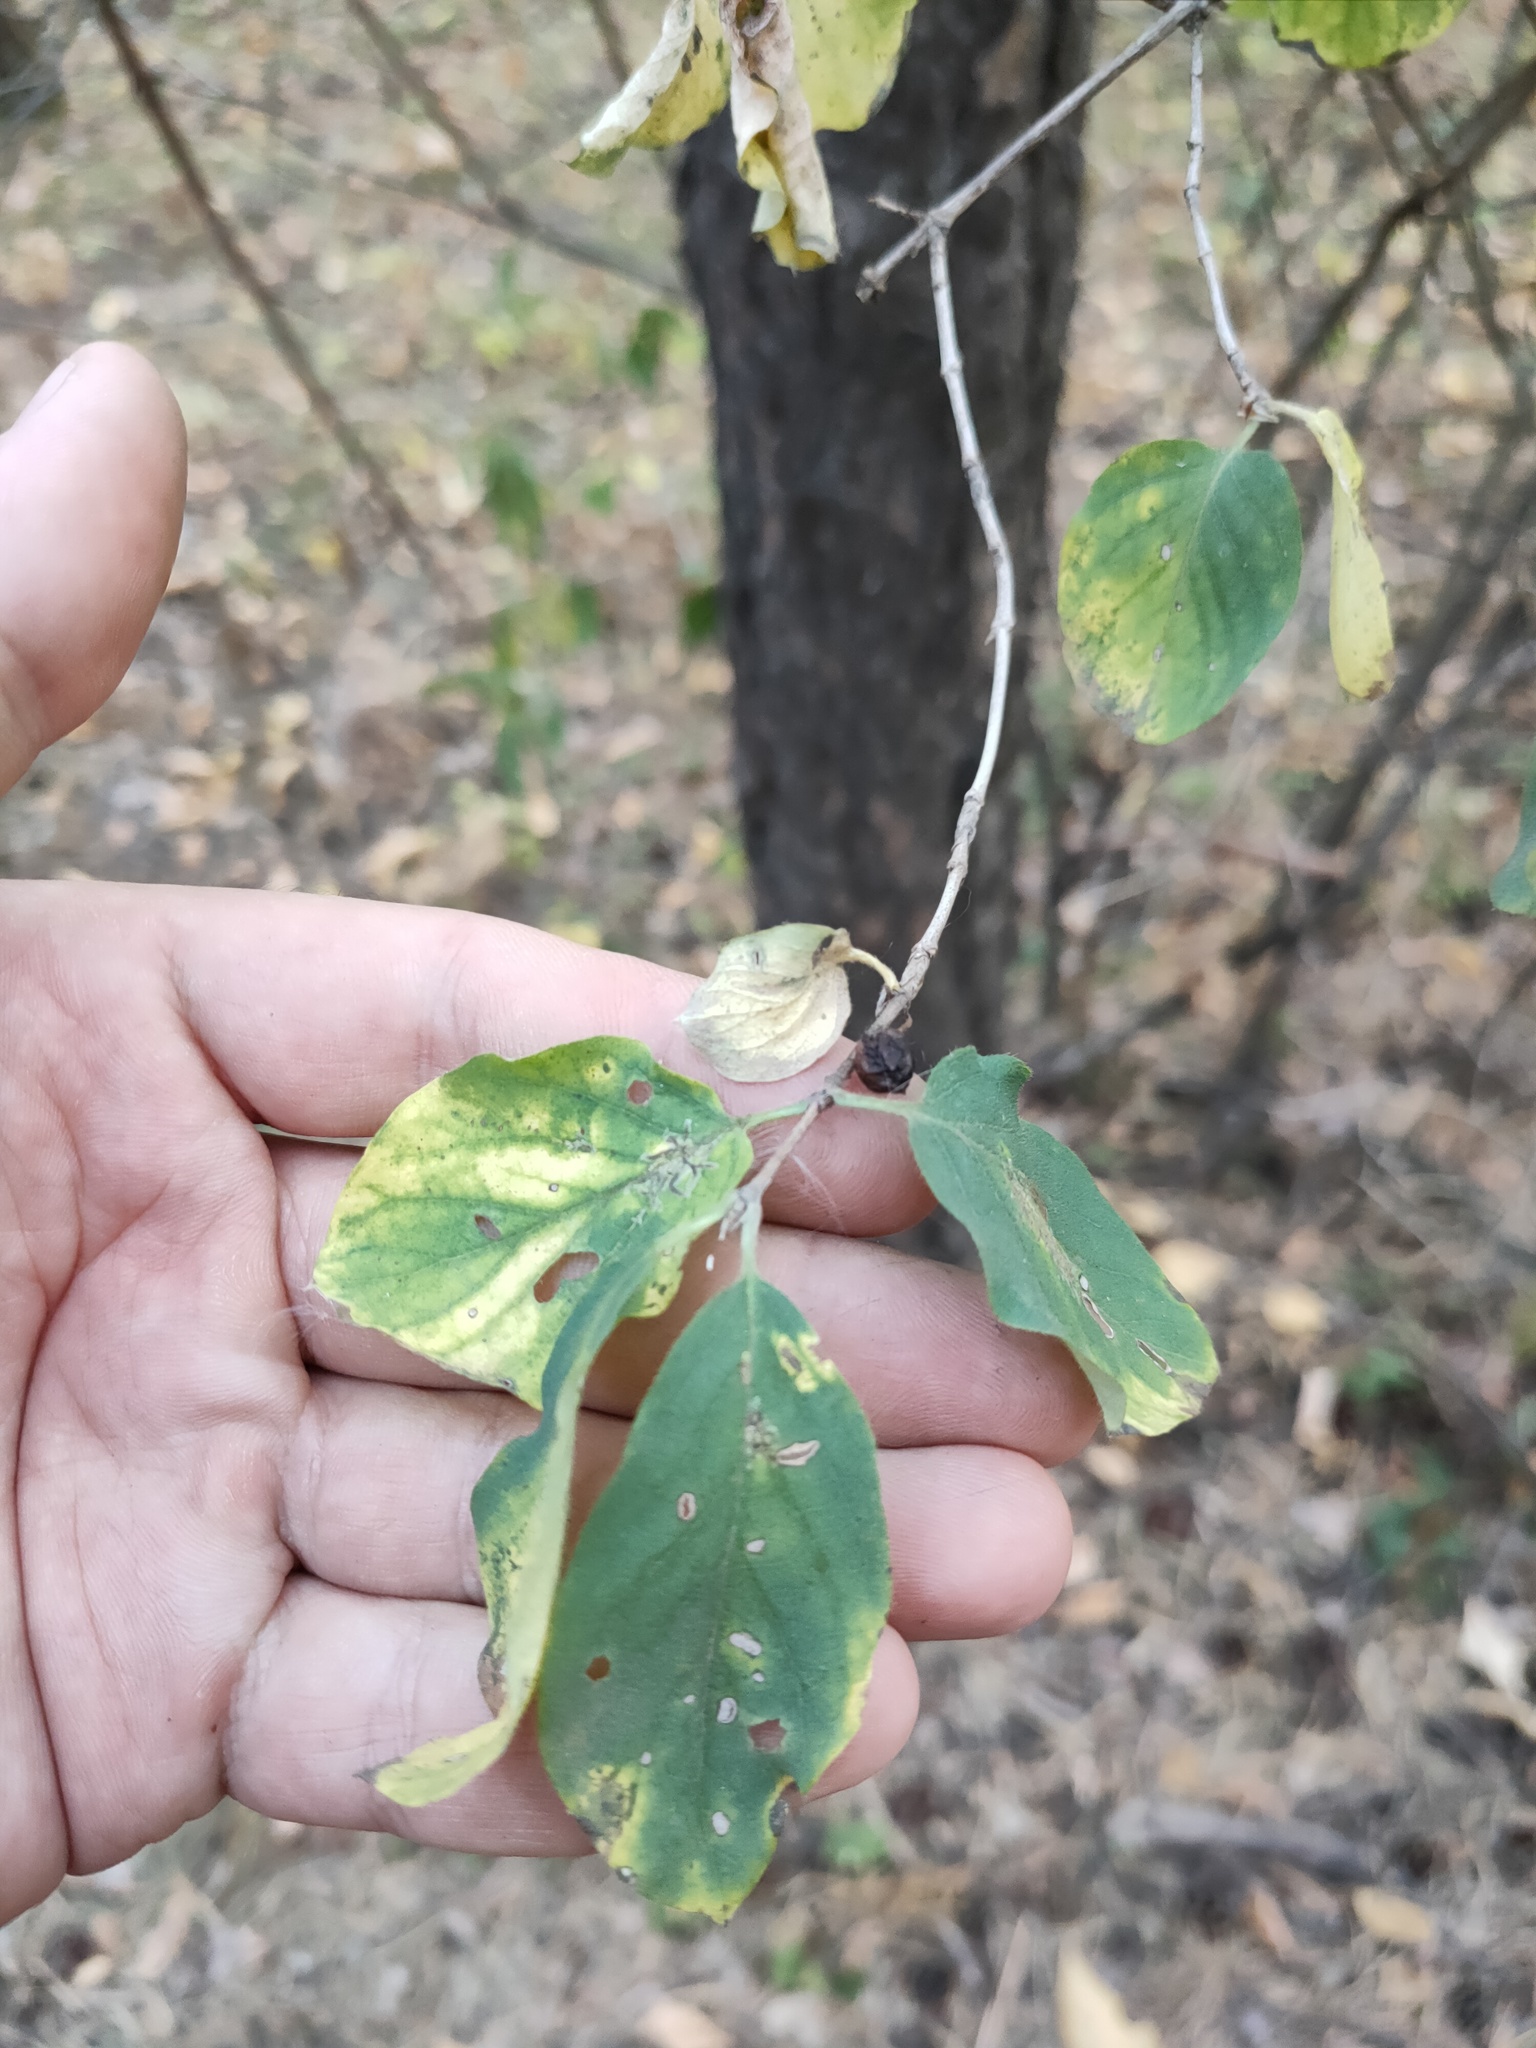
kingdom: Plantae
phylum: Tracheophyta
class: Magnoliopsida
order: Dipsacales
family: Caprifoliaceae
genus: Lonicera
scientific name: Lonicera xylosteum
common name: Fly honeysuckle
